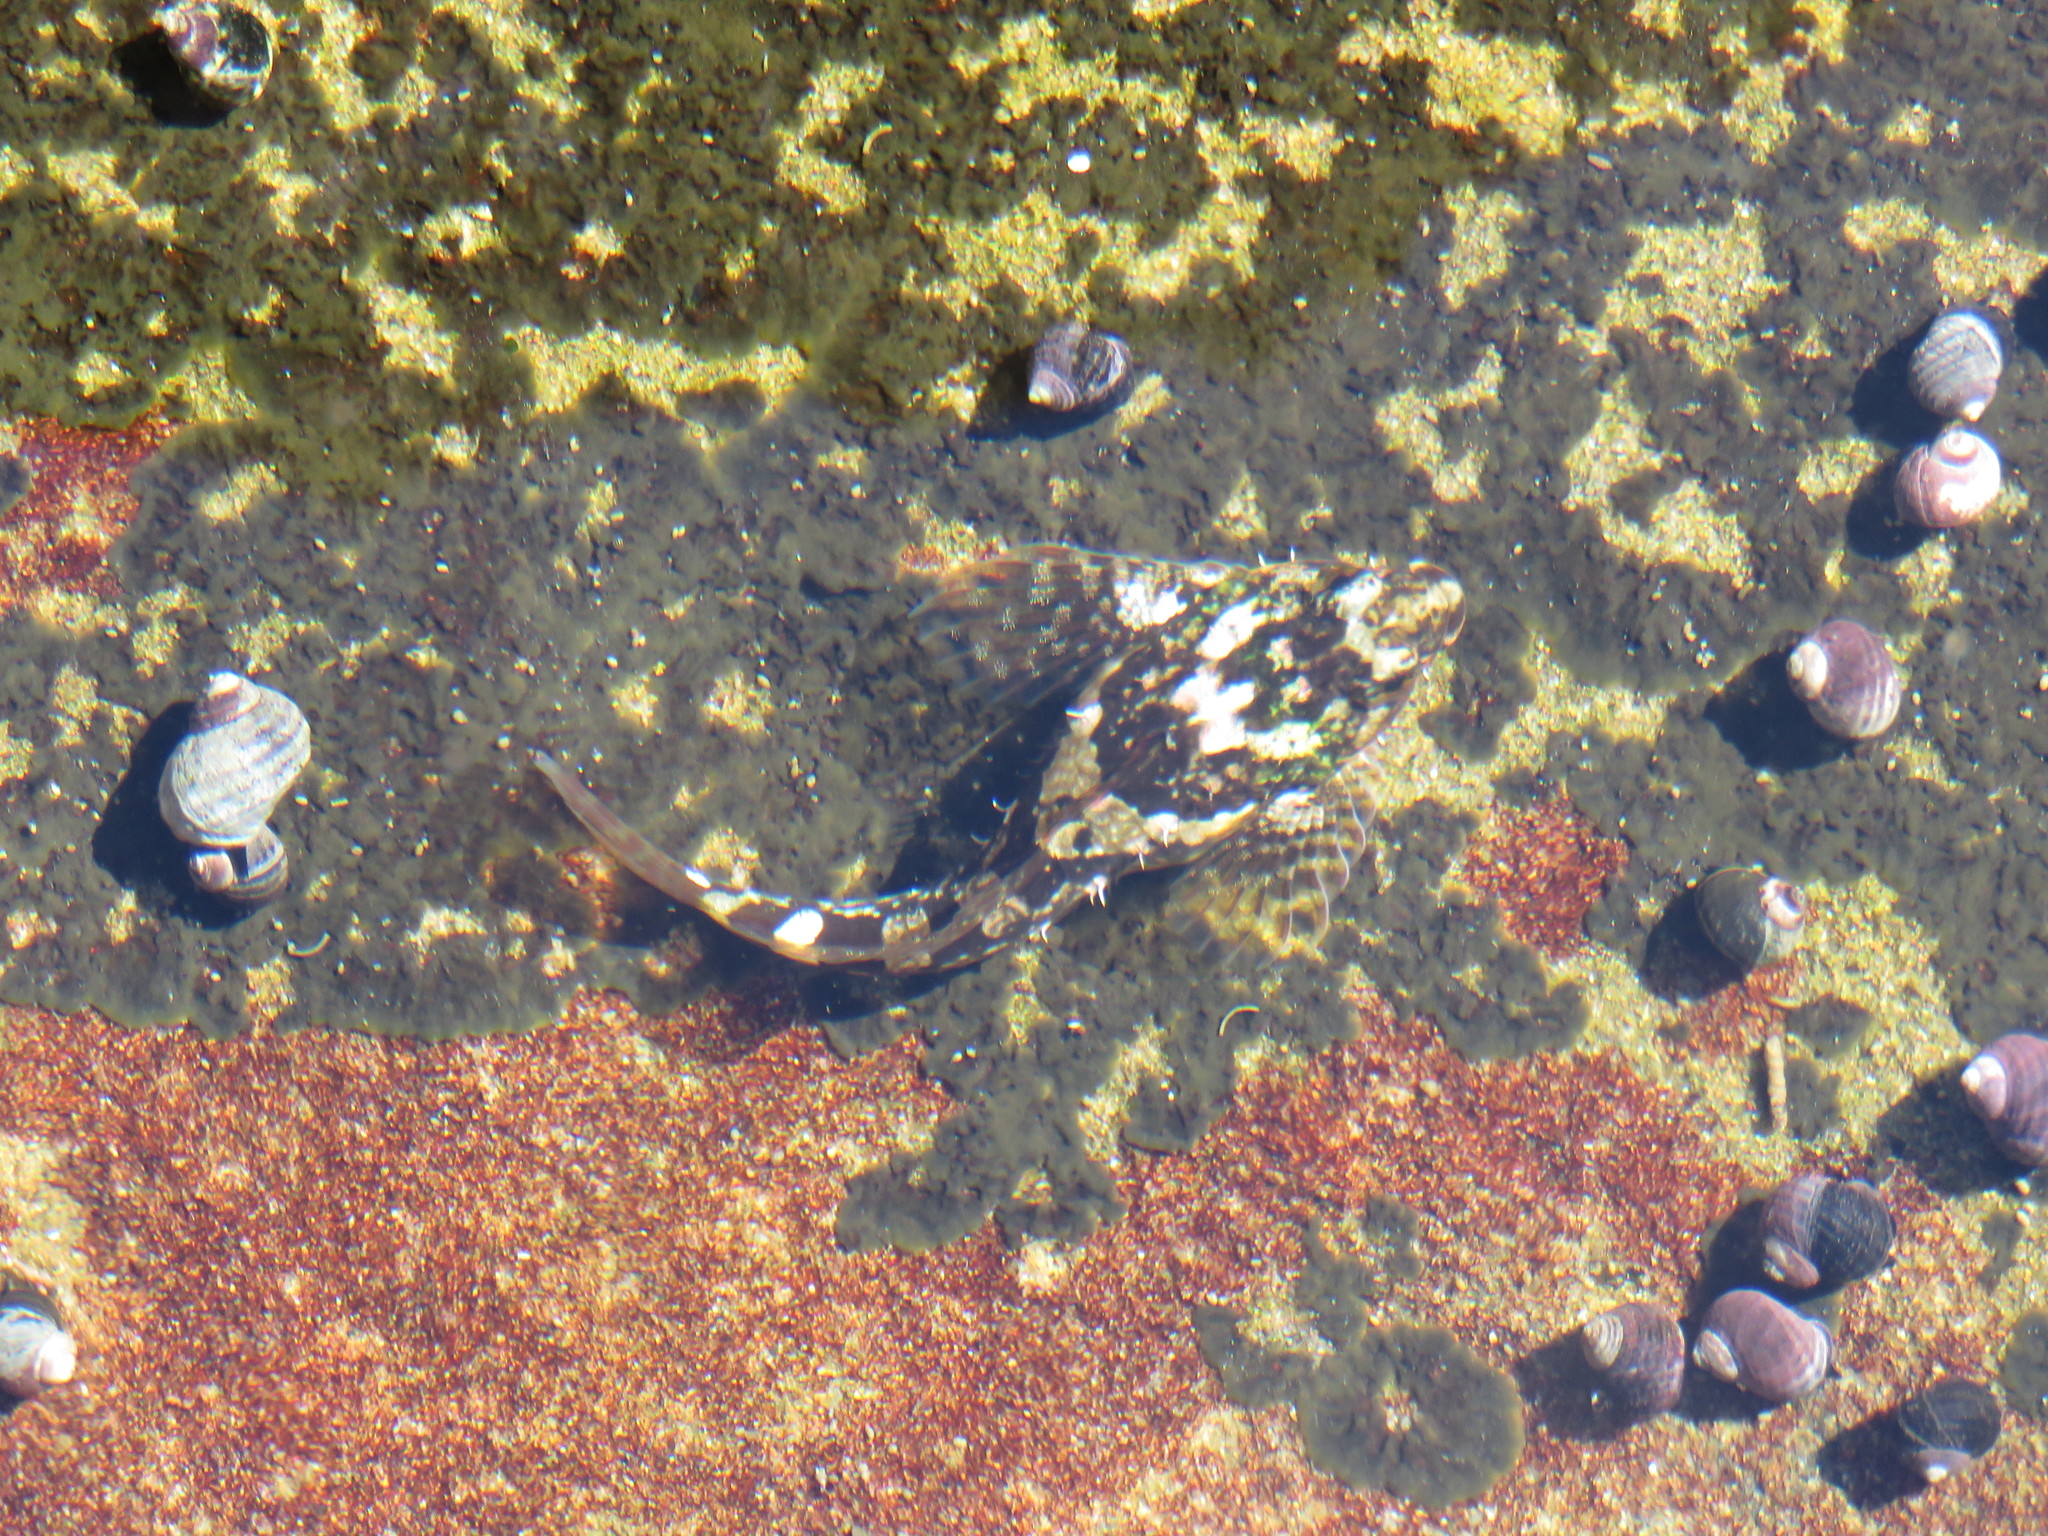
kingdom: Animalia
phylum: Chordata
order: Scorpaeniformes
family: Cottidae
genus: Oligocottus
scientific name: Oligocottus maculosus
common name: Tidepool sculpin
